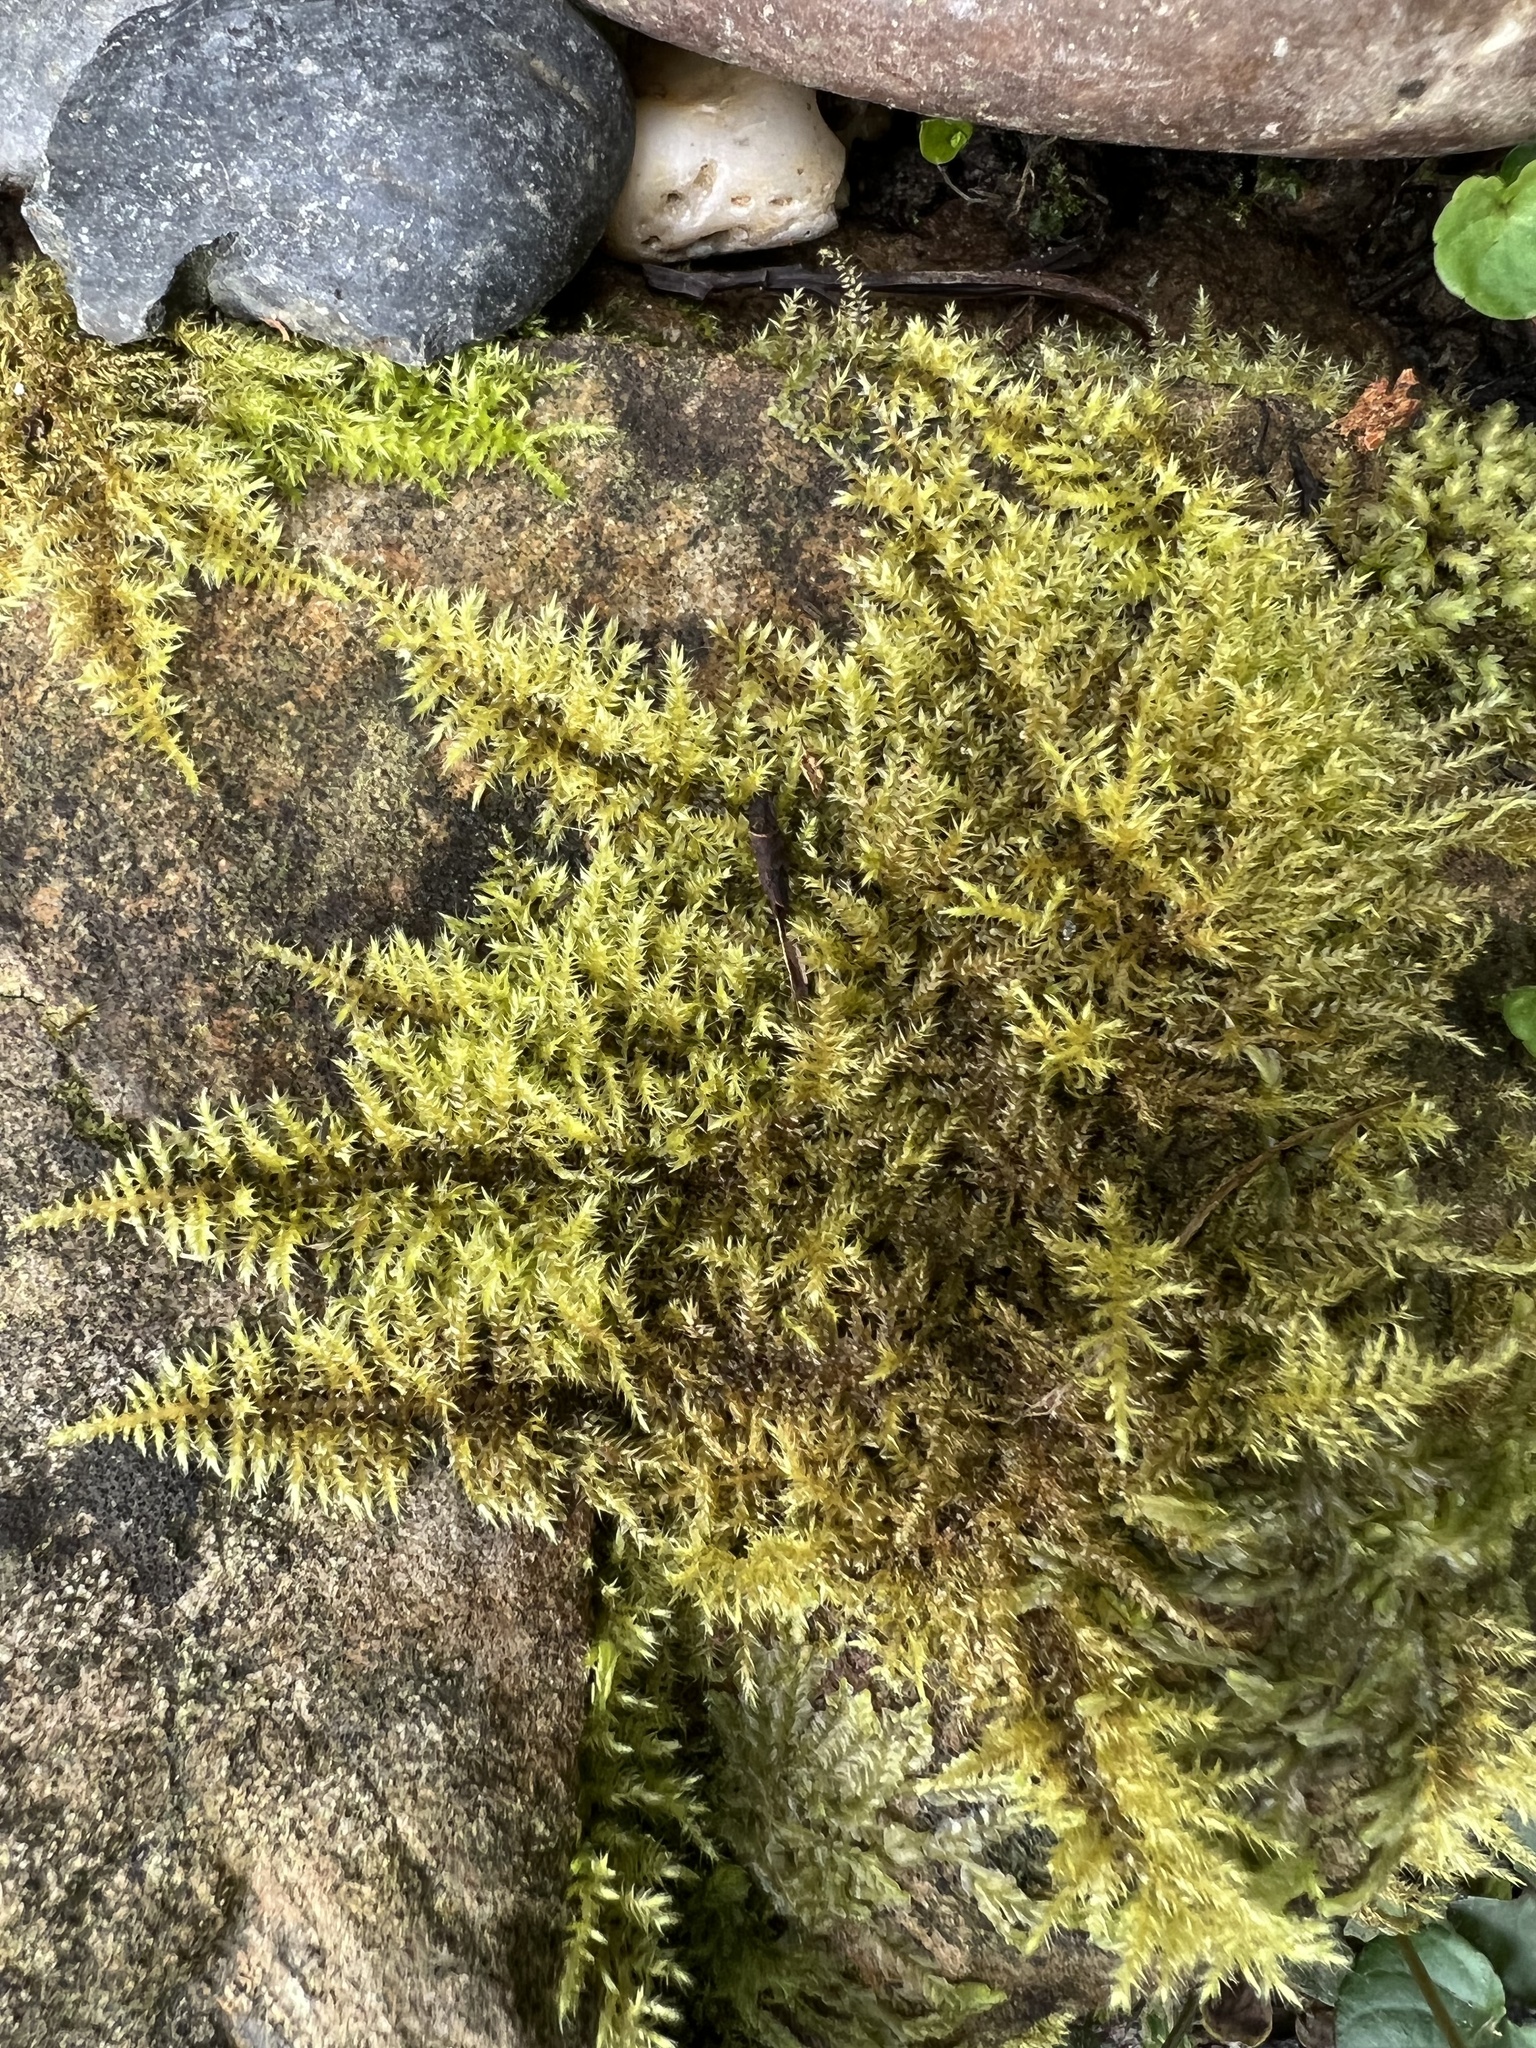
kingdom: Plantae
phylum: Bryophyta
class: Bryopsida
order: Hypnales
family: Thuidiaceae
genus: Thuidiopsis
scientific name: Thuidiopsis sparsa
